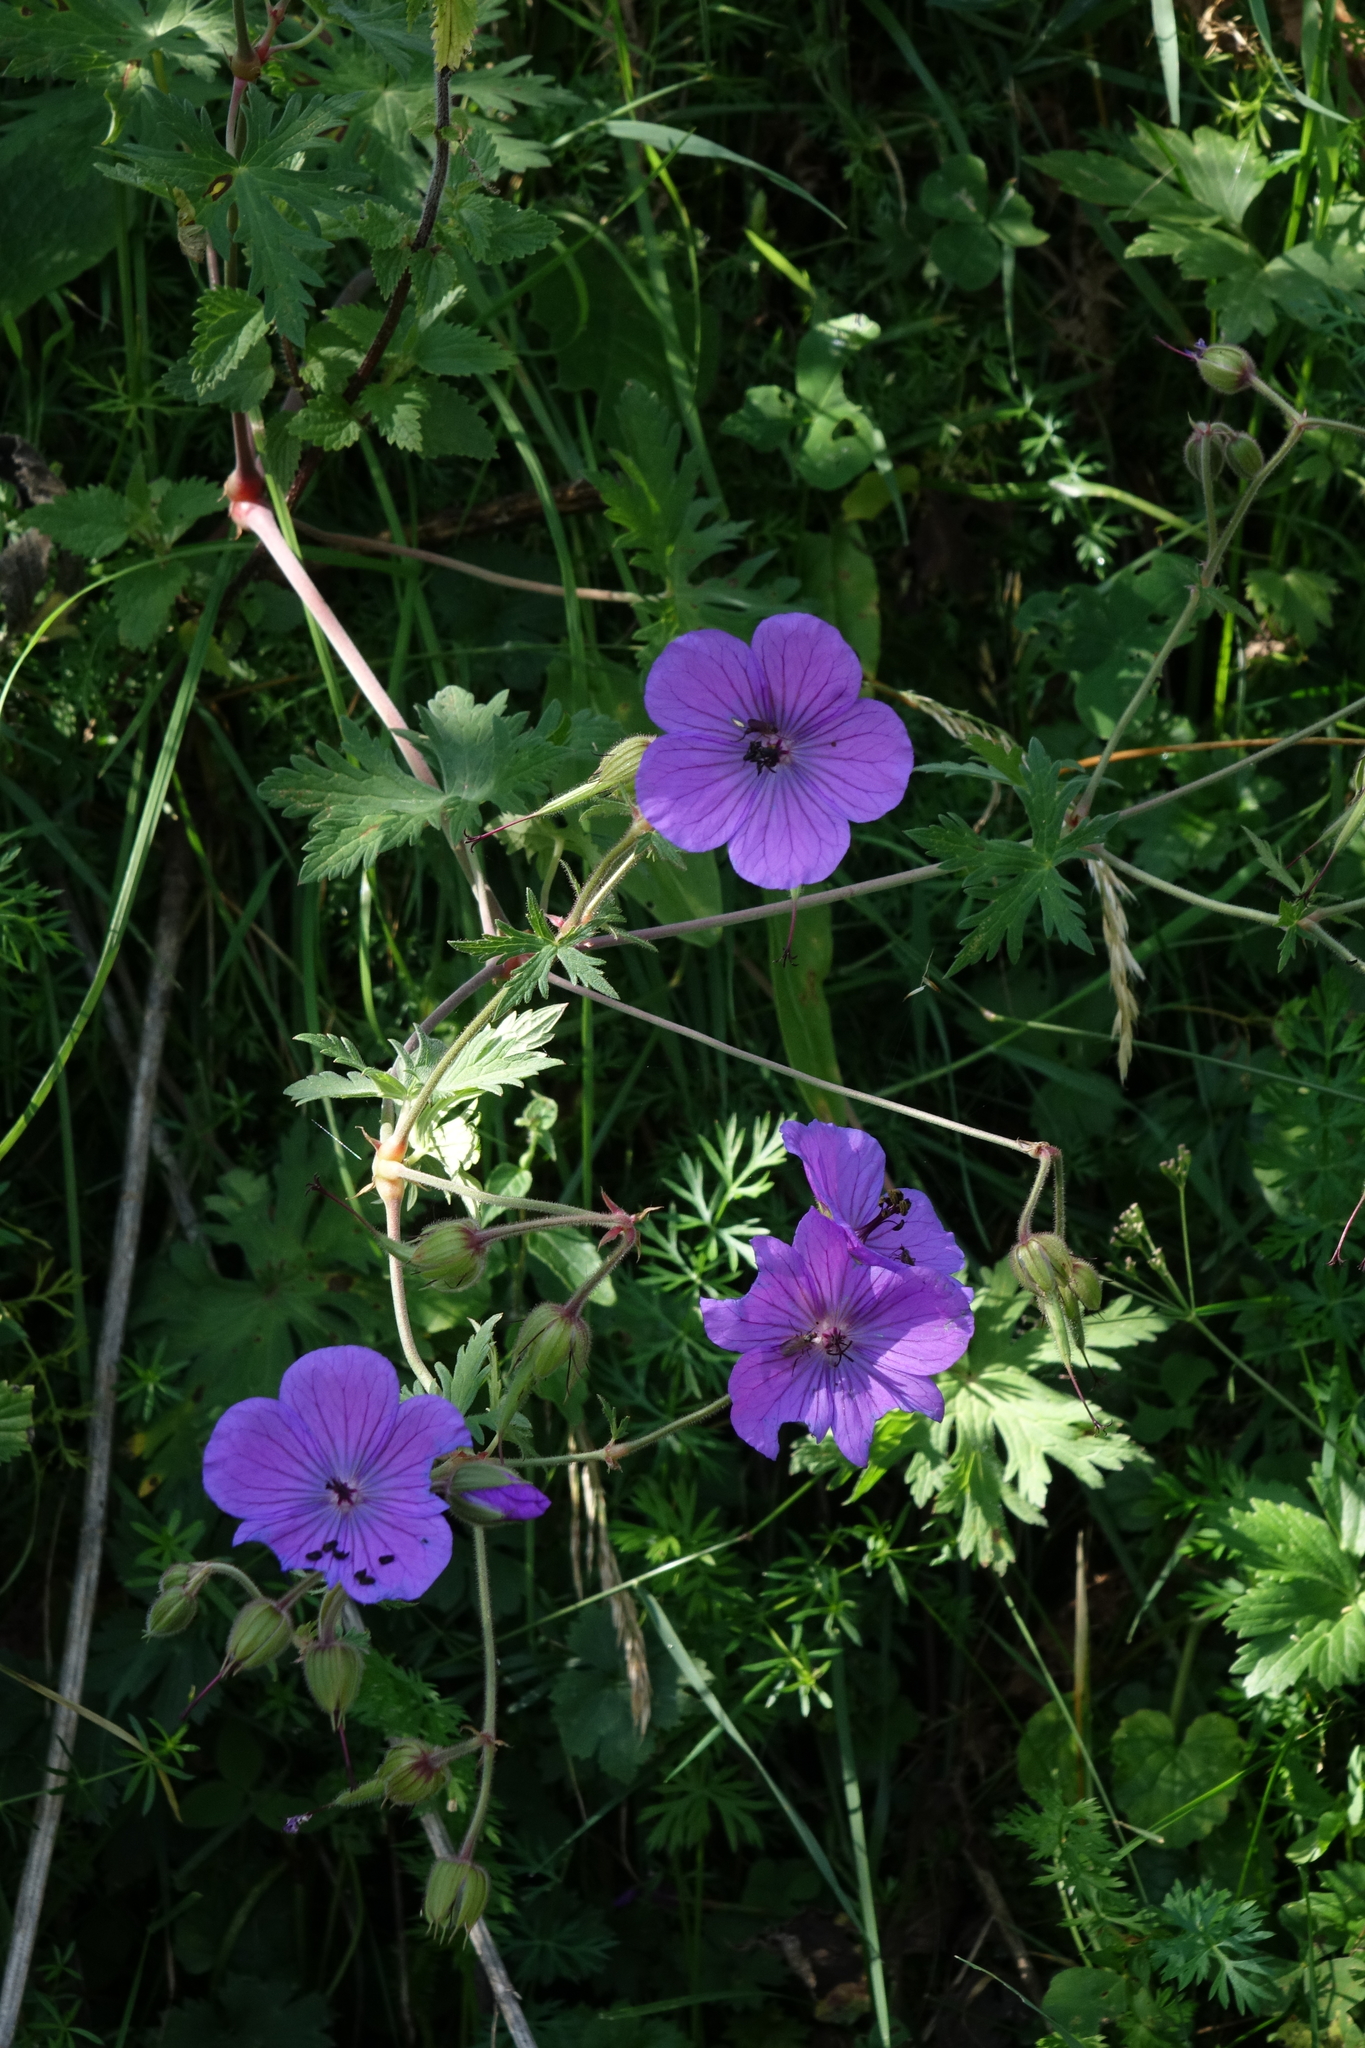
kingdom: Plantae
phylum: Tracheophyta
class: Magnoliopsida
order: Geraniales
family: Geraniaceae
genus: Geranium
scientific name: Geranium ruprechtii
